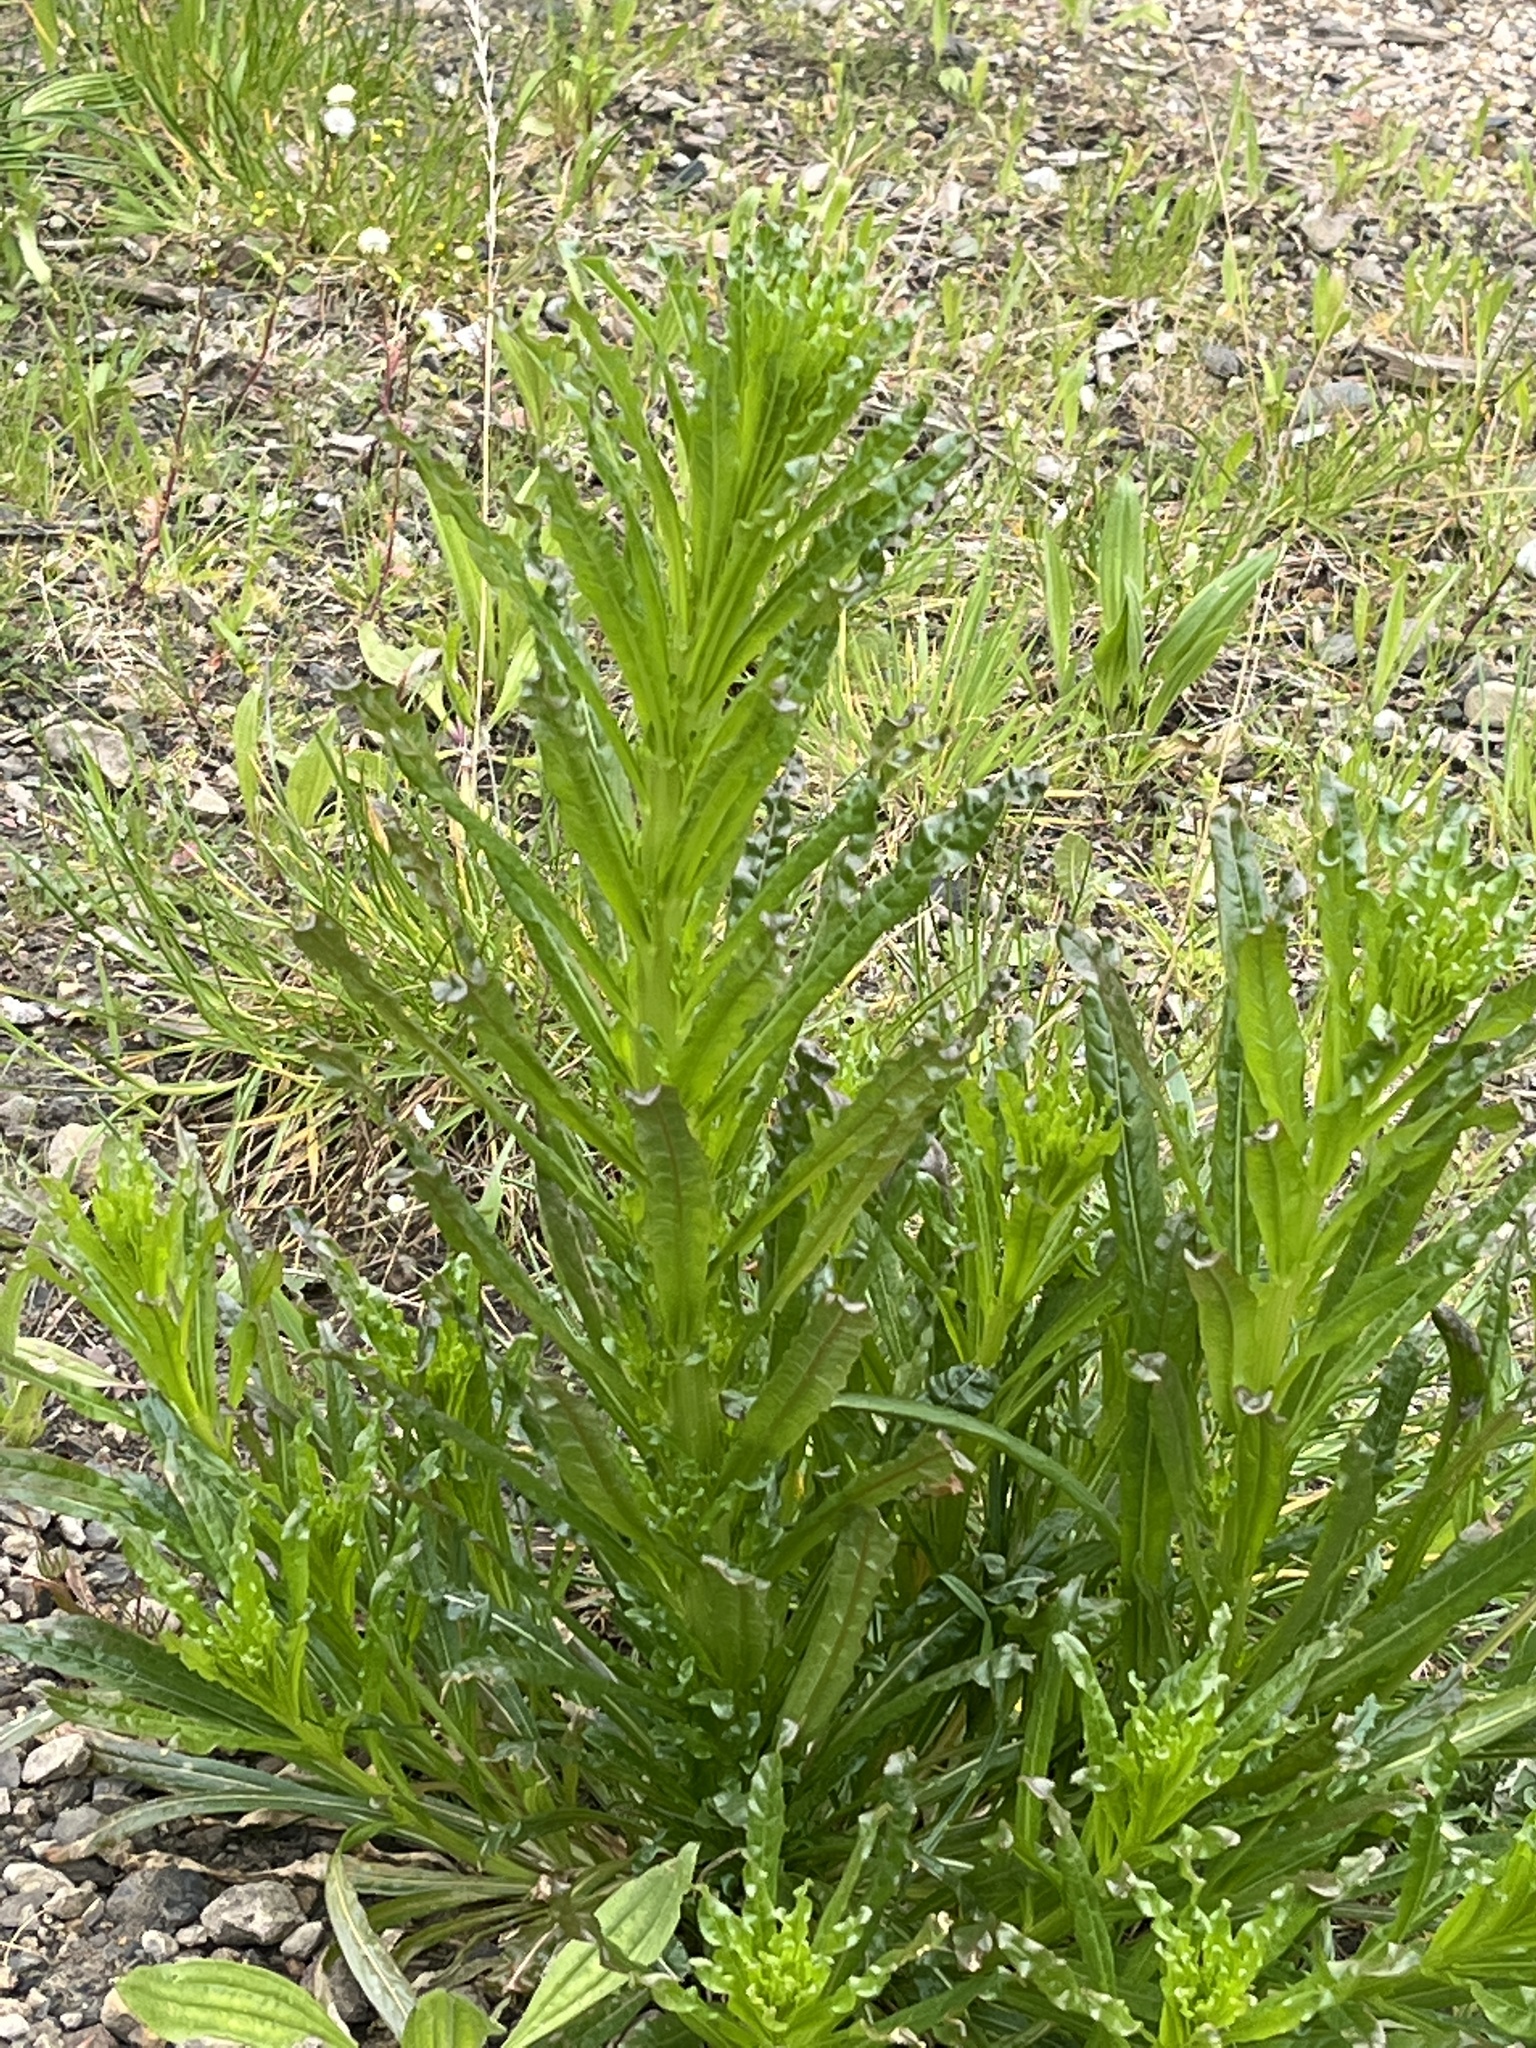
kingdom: Plantae
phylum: Tracheophyta
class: Magnoliopsida
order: Brassicales
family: Resedaceae
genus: Reseda
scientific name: Reseda luteola
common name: Weld
